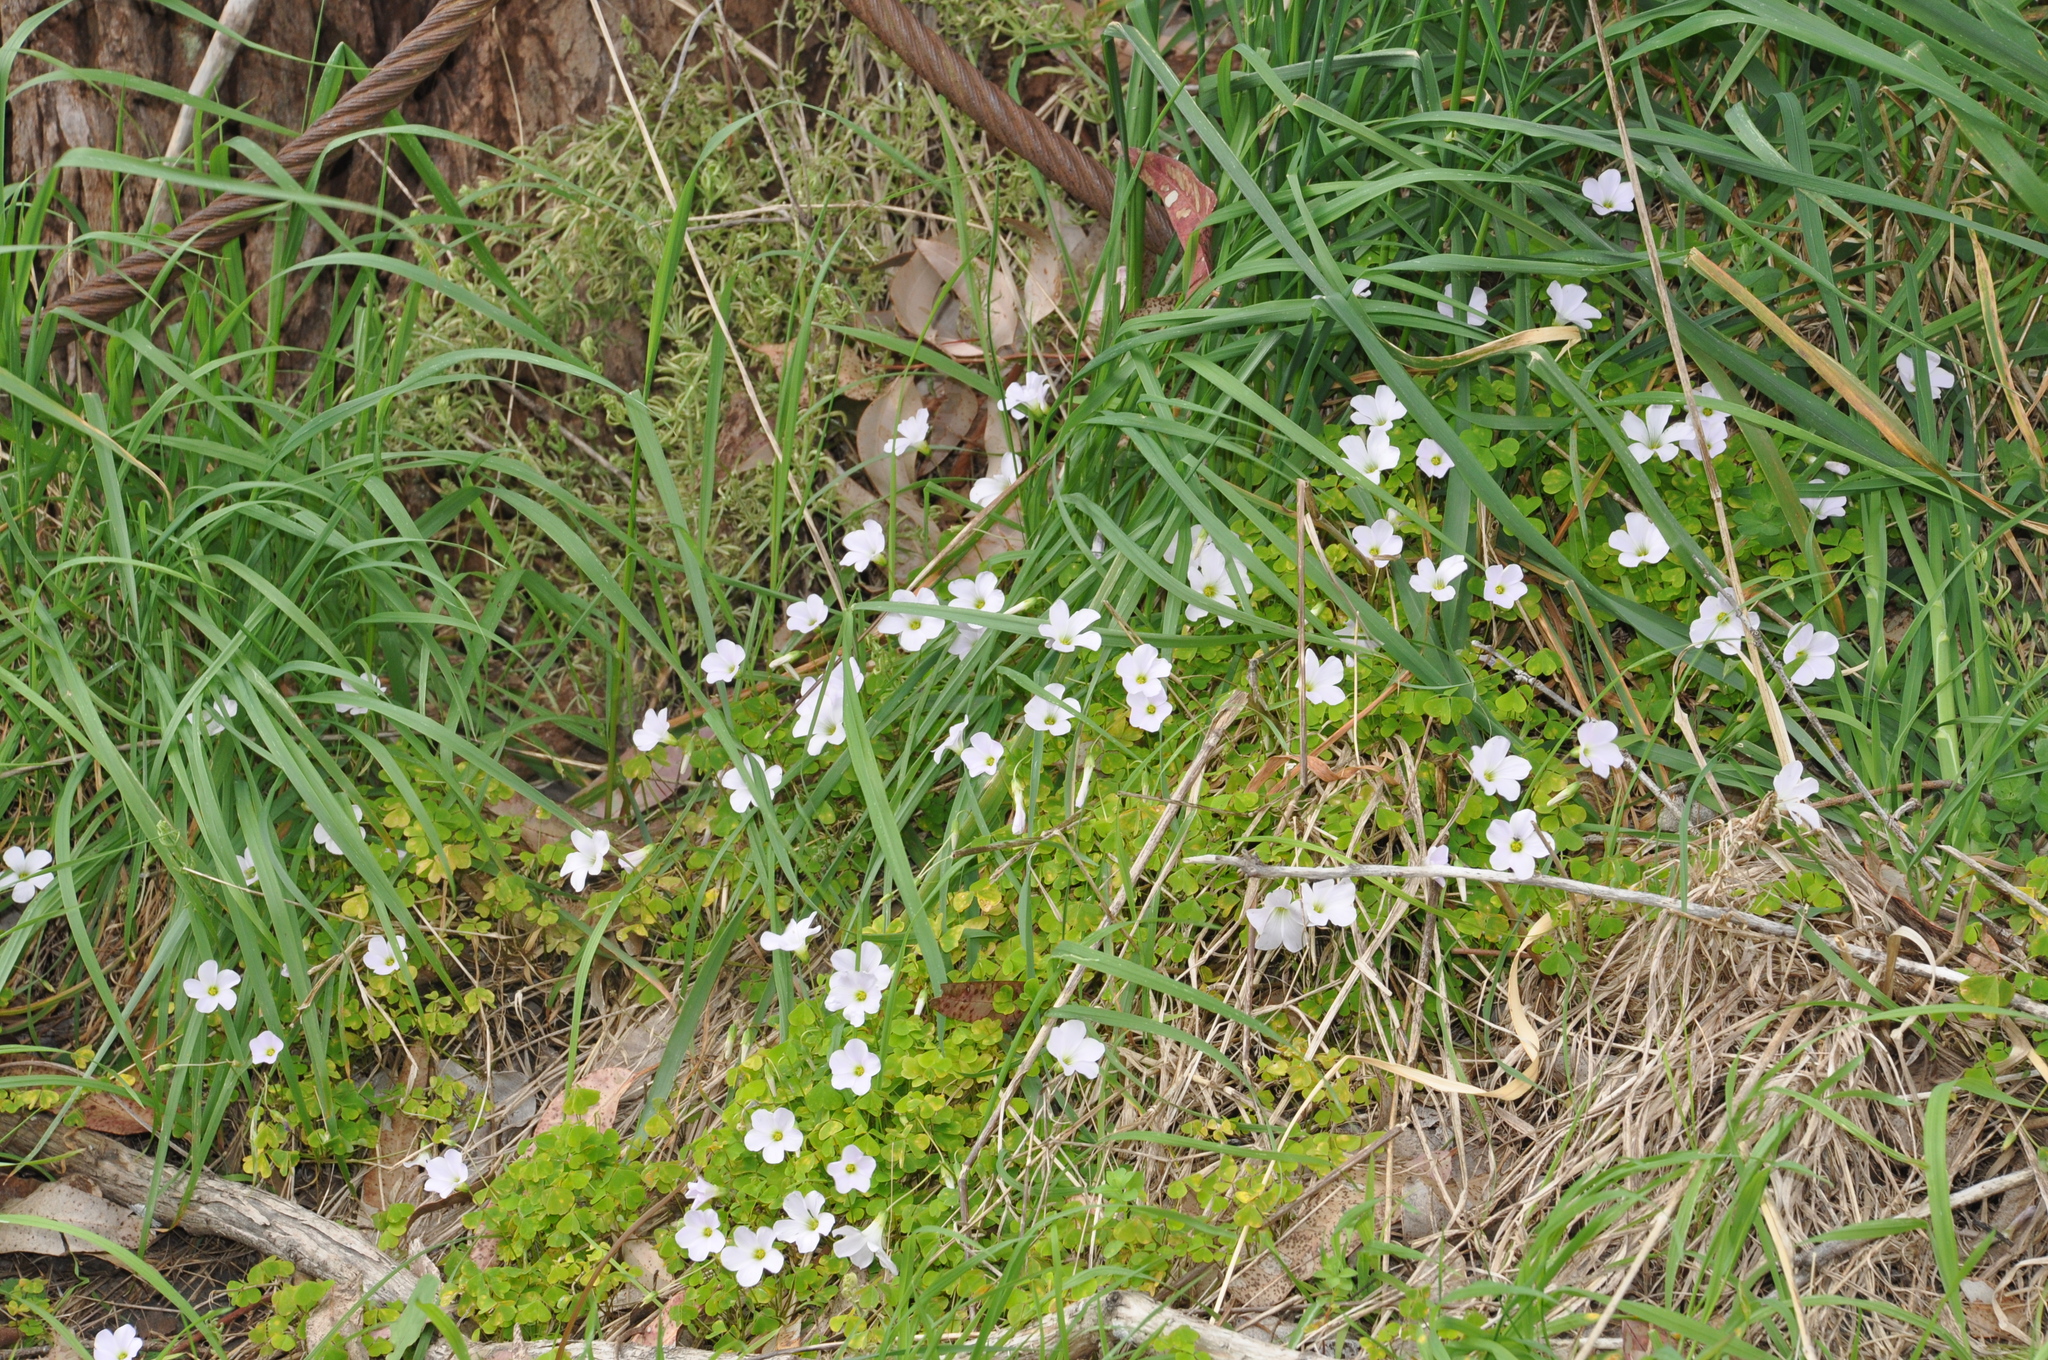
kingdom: Plantae
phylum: Tracheophyta
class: Magnoliopsida
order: Oxalidales
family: Oxalidaceae
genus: Oxalis
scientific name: Oxalis incarnata
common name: Pale pink-sorrel
